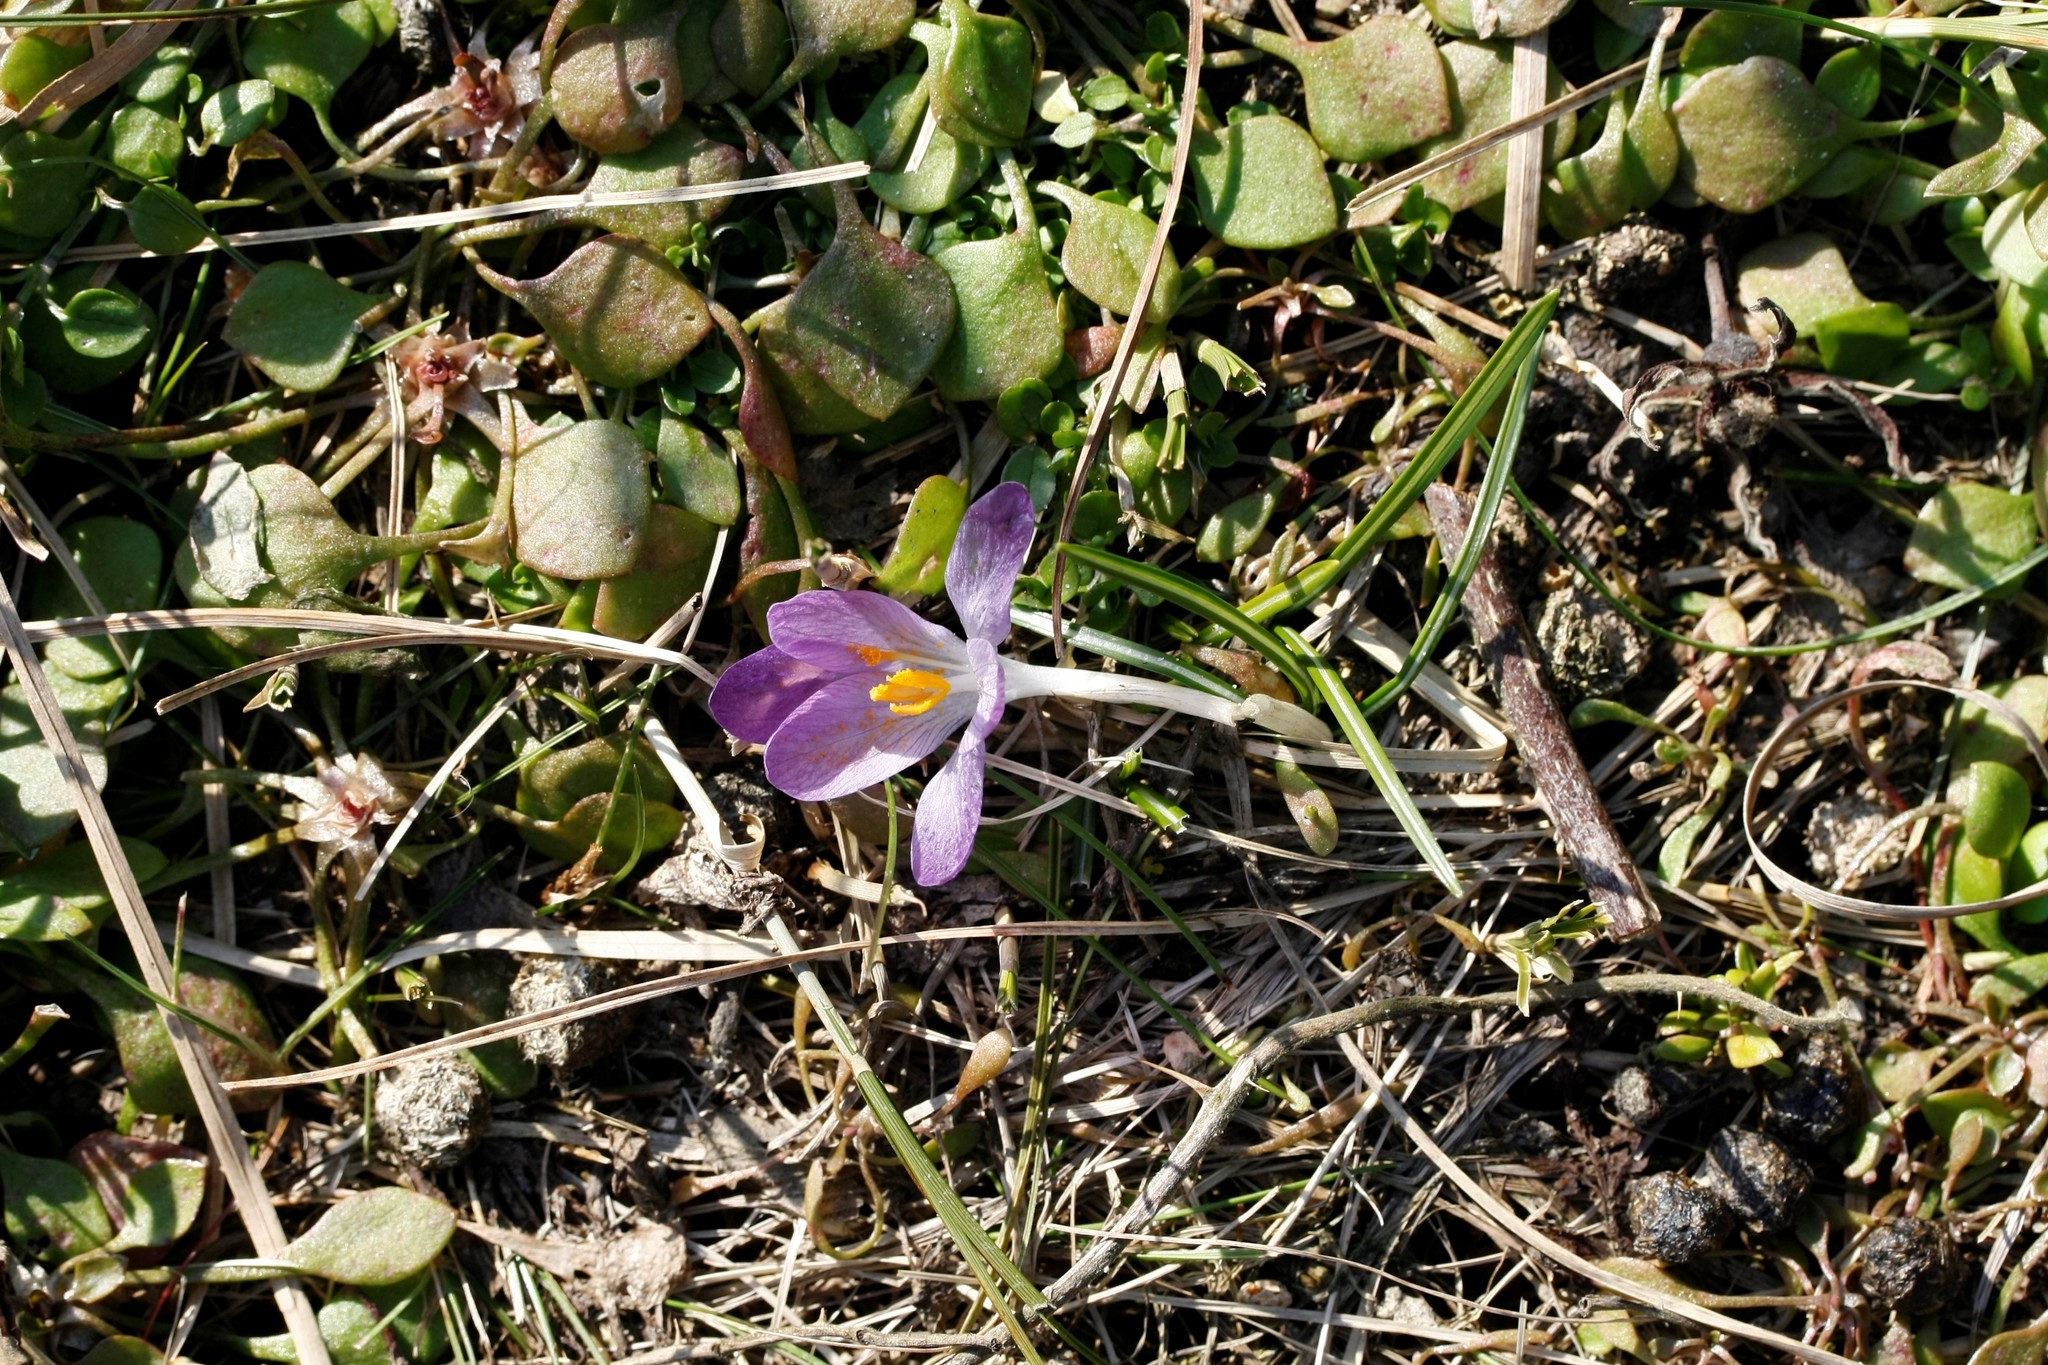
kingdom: Plantae
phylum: Tracheophyta
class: Liliopsida
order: Asparagales
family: Iridaceae
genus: Crocus
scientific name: Crocus tommasinianus
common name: Early crocus
